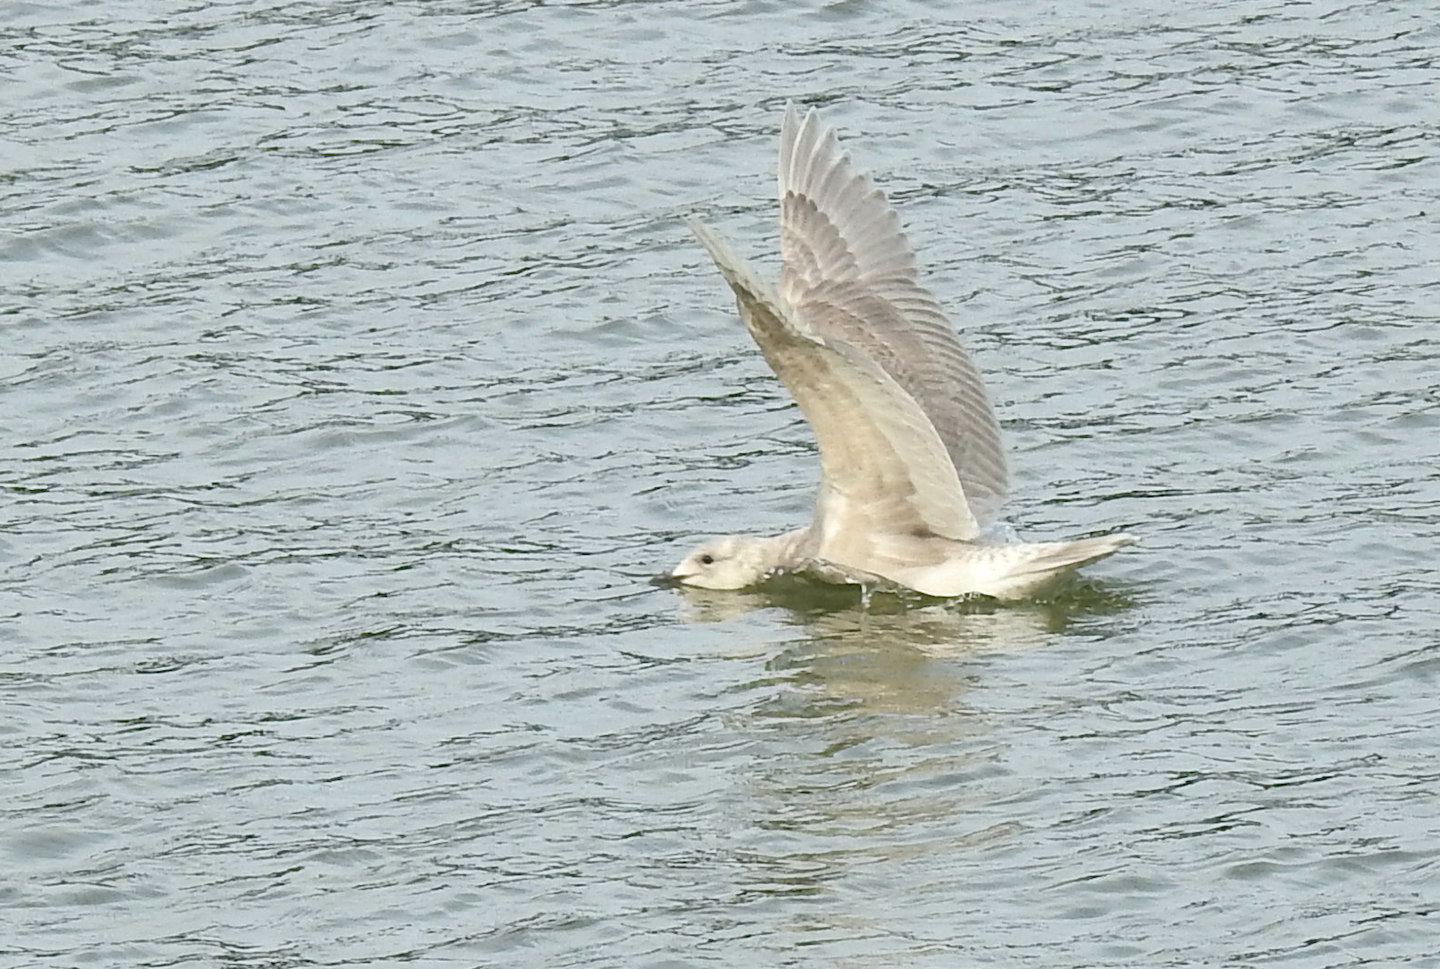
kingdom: Animalia
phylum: Chordata
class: Aves
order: Charadriiformes
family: Laridae
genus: Larus
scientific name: Larus glaucescens
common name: Glaucous-winged gull
